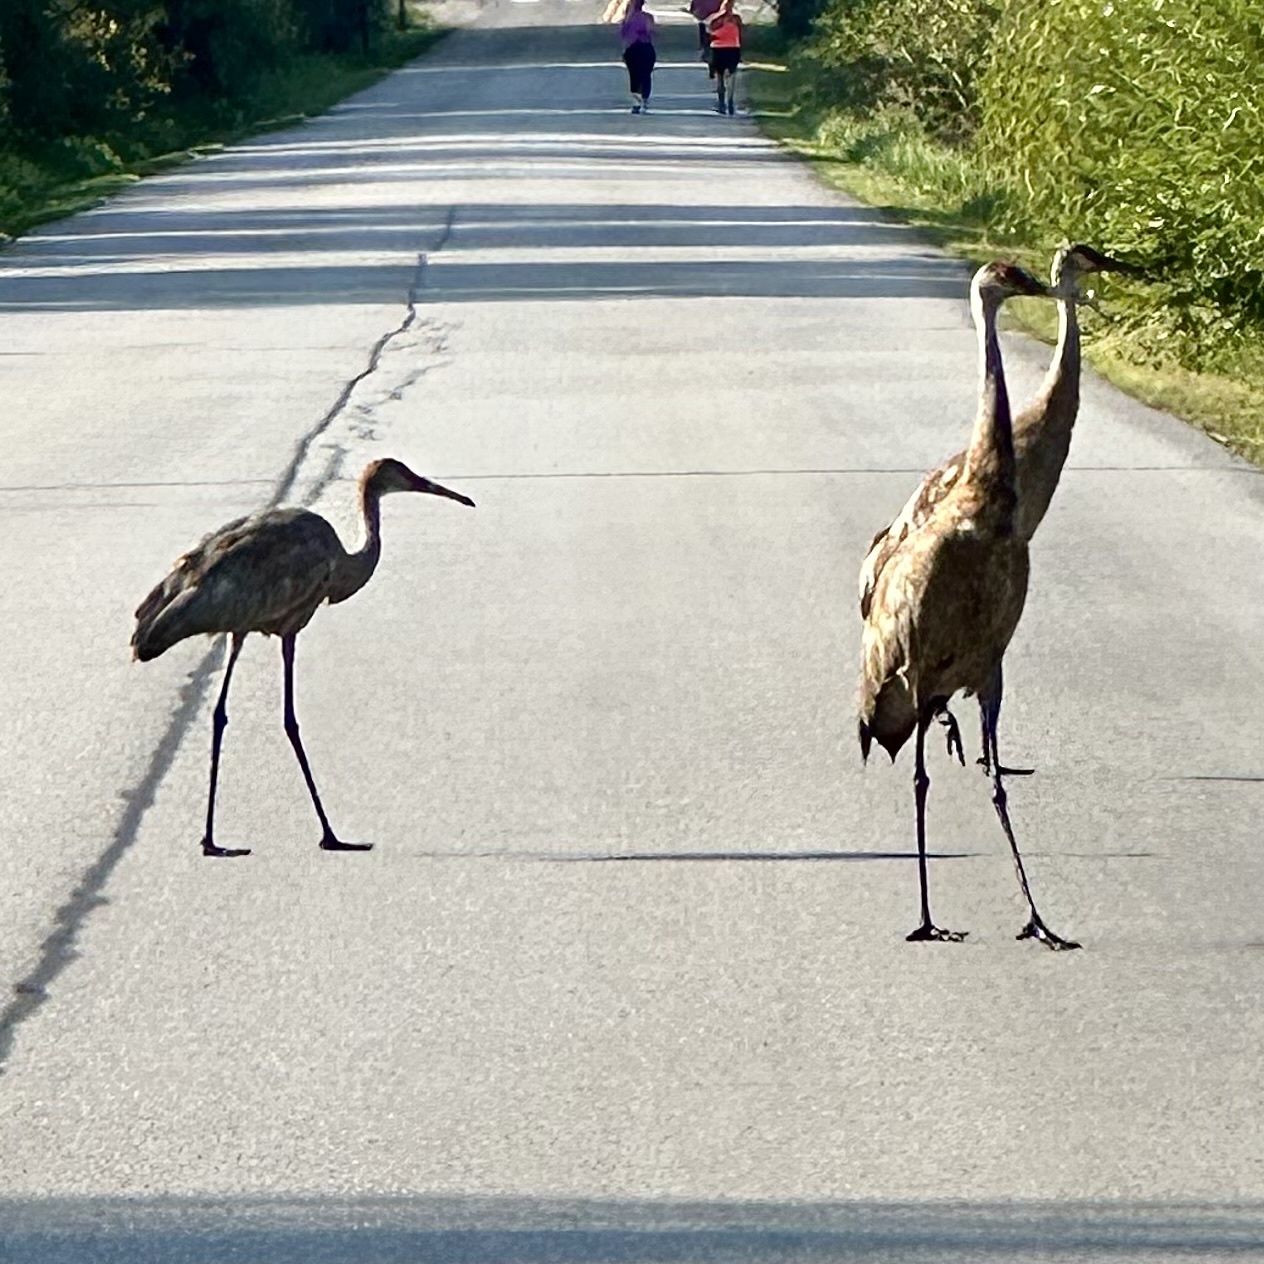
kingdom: Animalia
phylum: Chordata
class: Aves
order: Gruiformes
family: Gruidae
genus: Grus
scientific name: Grus canadensis
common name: Sandhill crane
